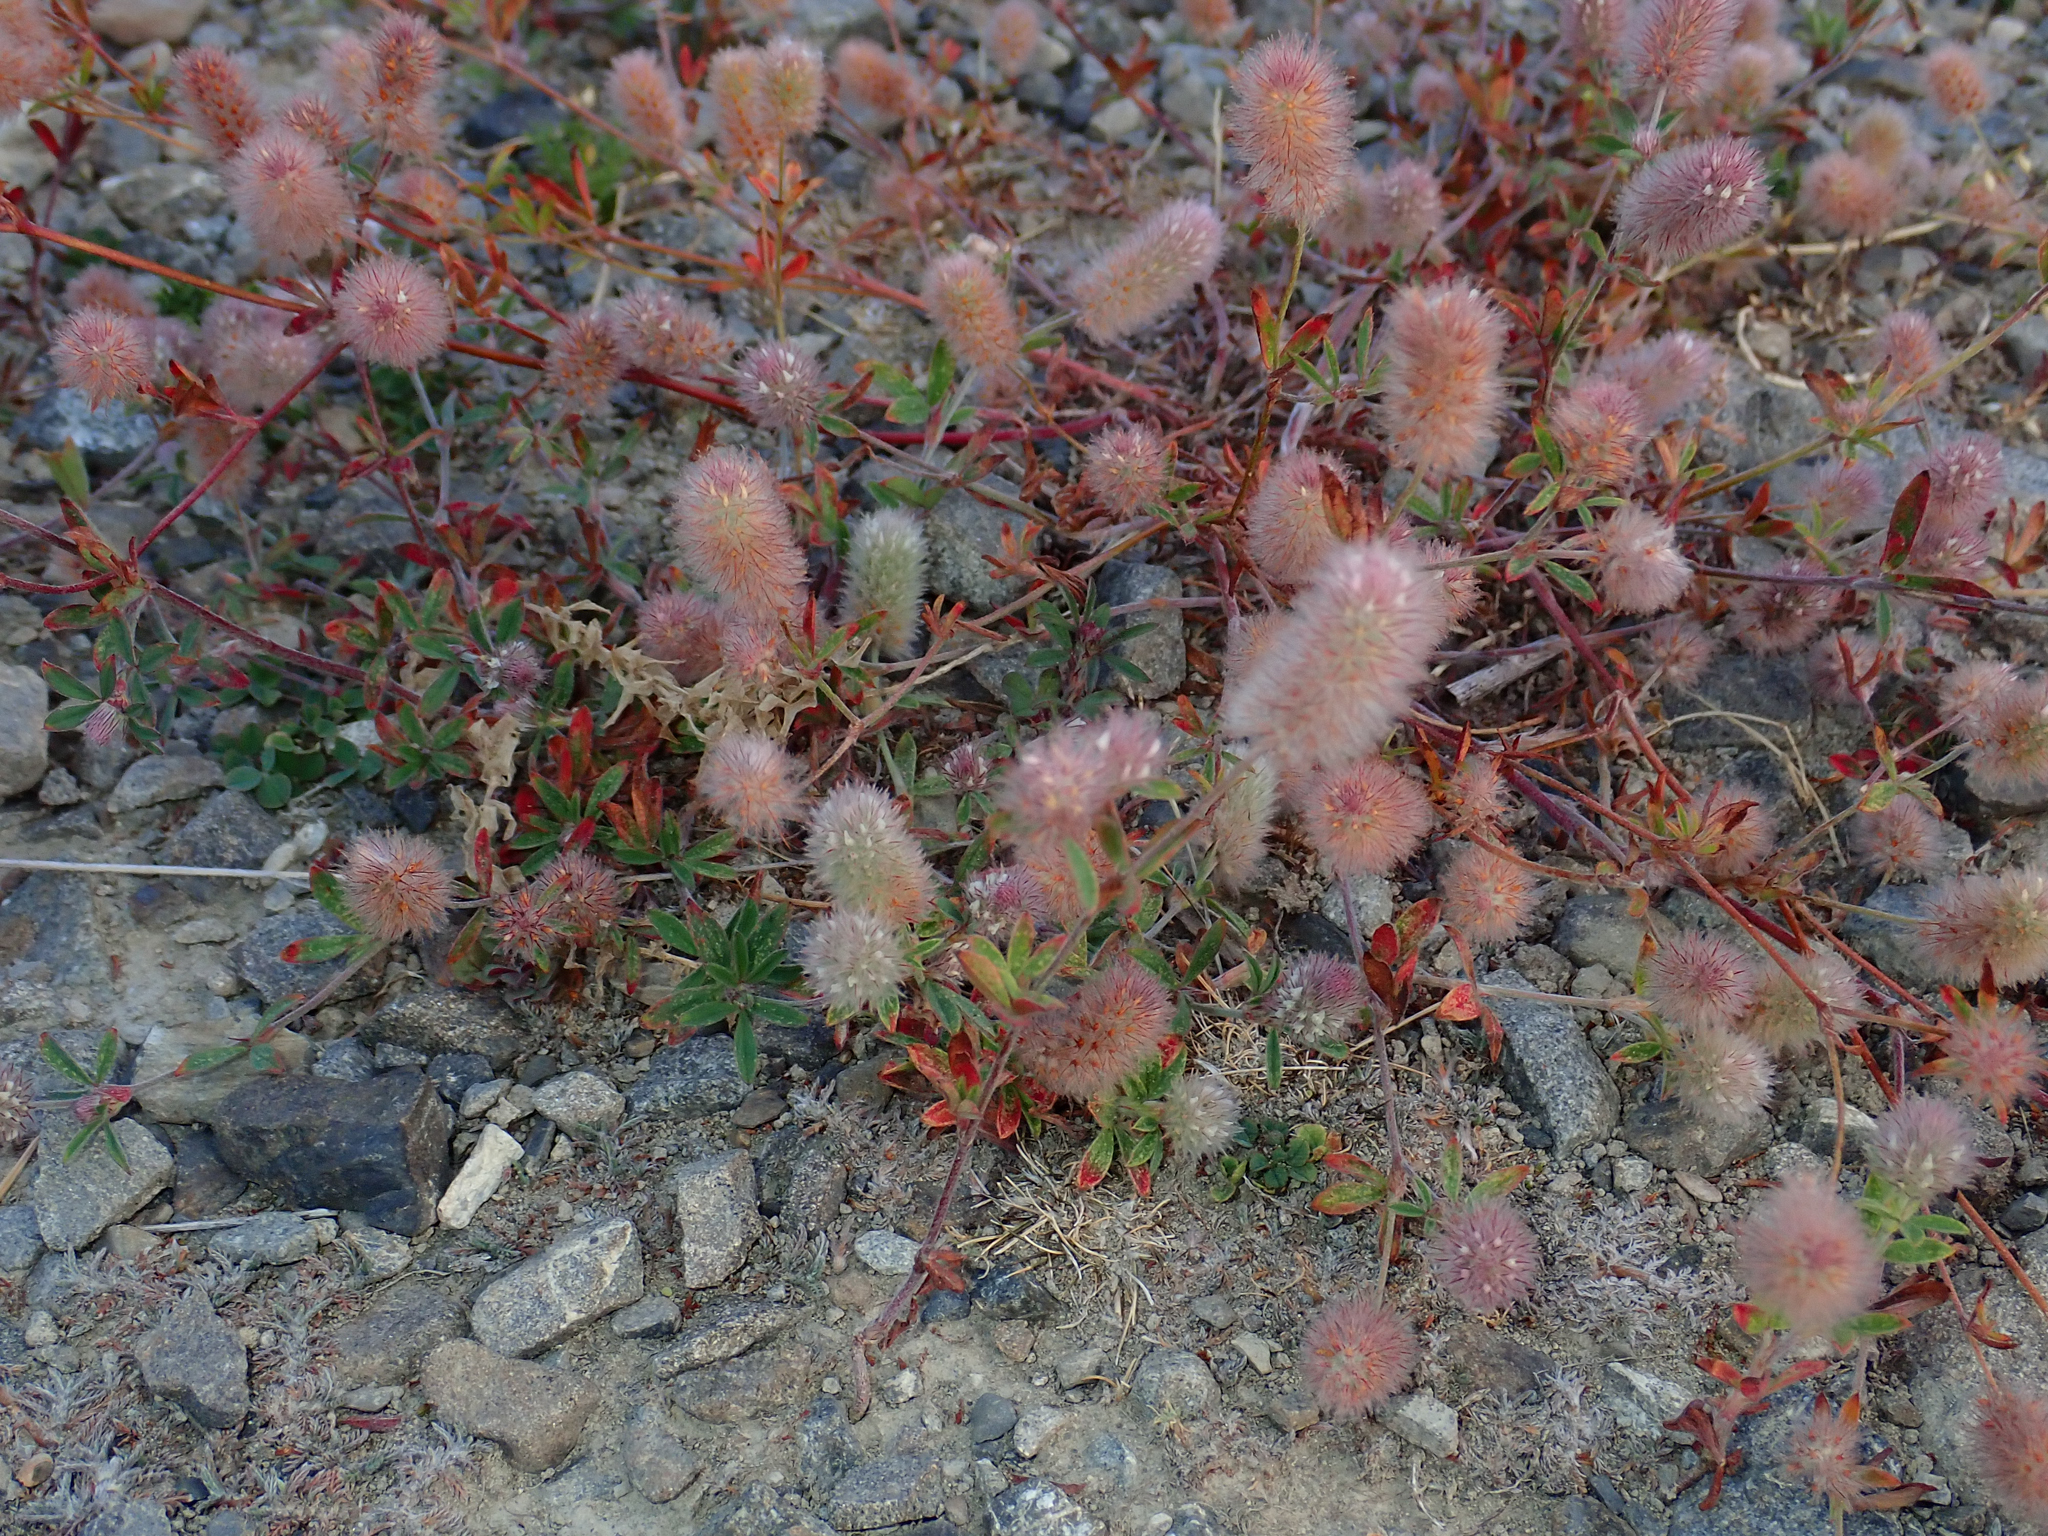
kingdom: Plantae
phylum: Tracheophyta
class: Magnoliopsida
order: Fabales
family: Fabaceae
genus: Trifolium
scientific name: Trifolium arvense
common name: Hare's-foot clover
